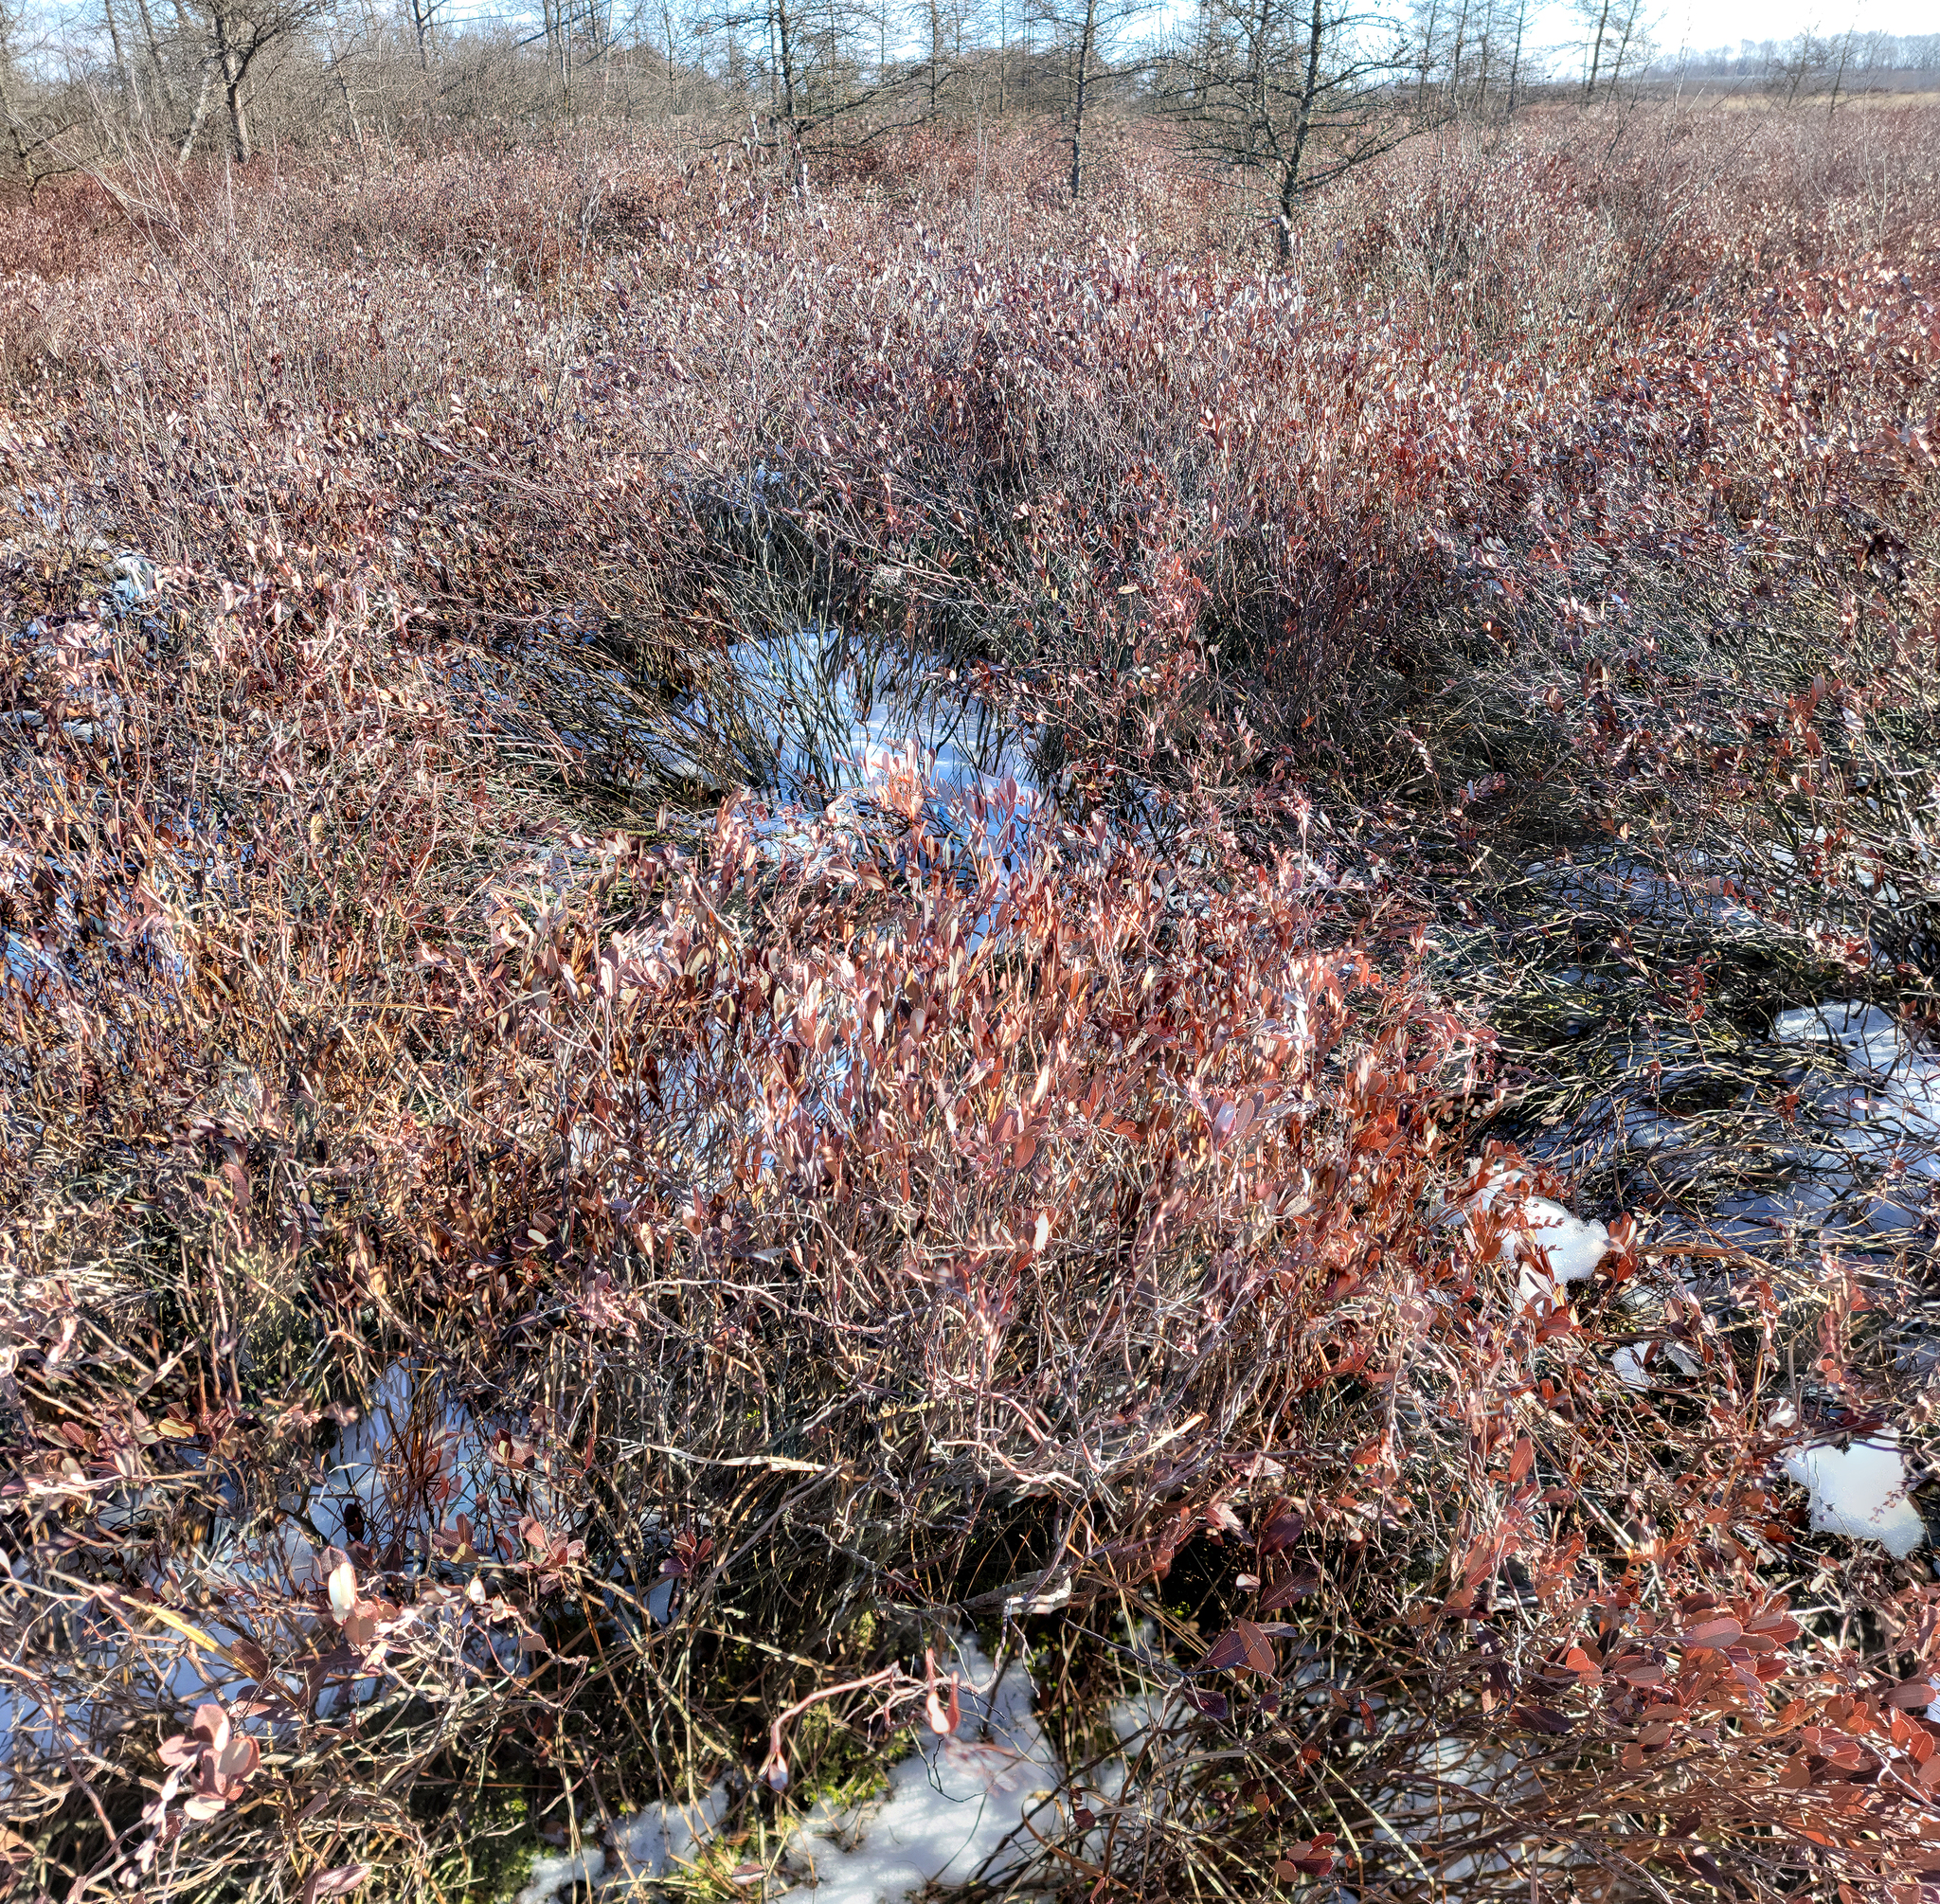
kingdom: Plantae
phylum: Tracheophyta
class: Magnoliopsida
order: Ericales
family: Ericaceae
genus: Chamaedaphne
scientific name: Chamaedaphne calyculata
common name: Leatherleaf
